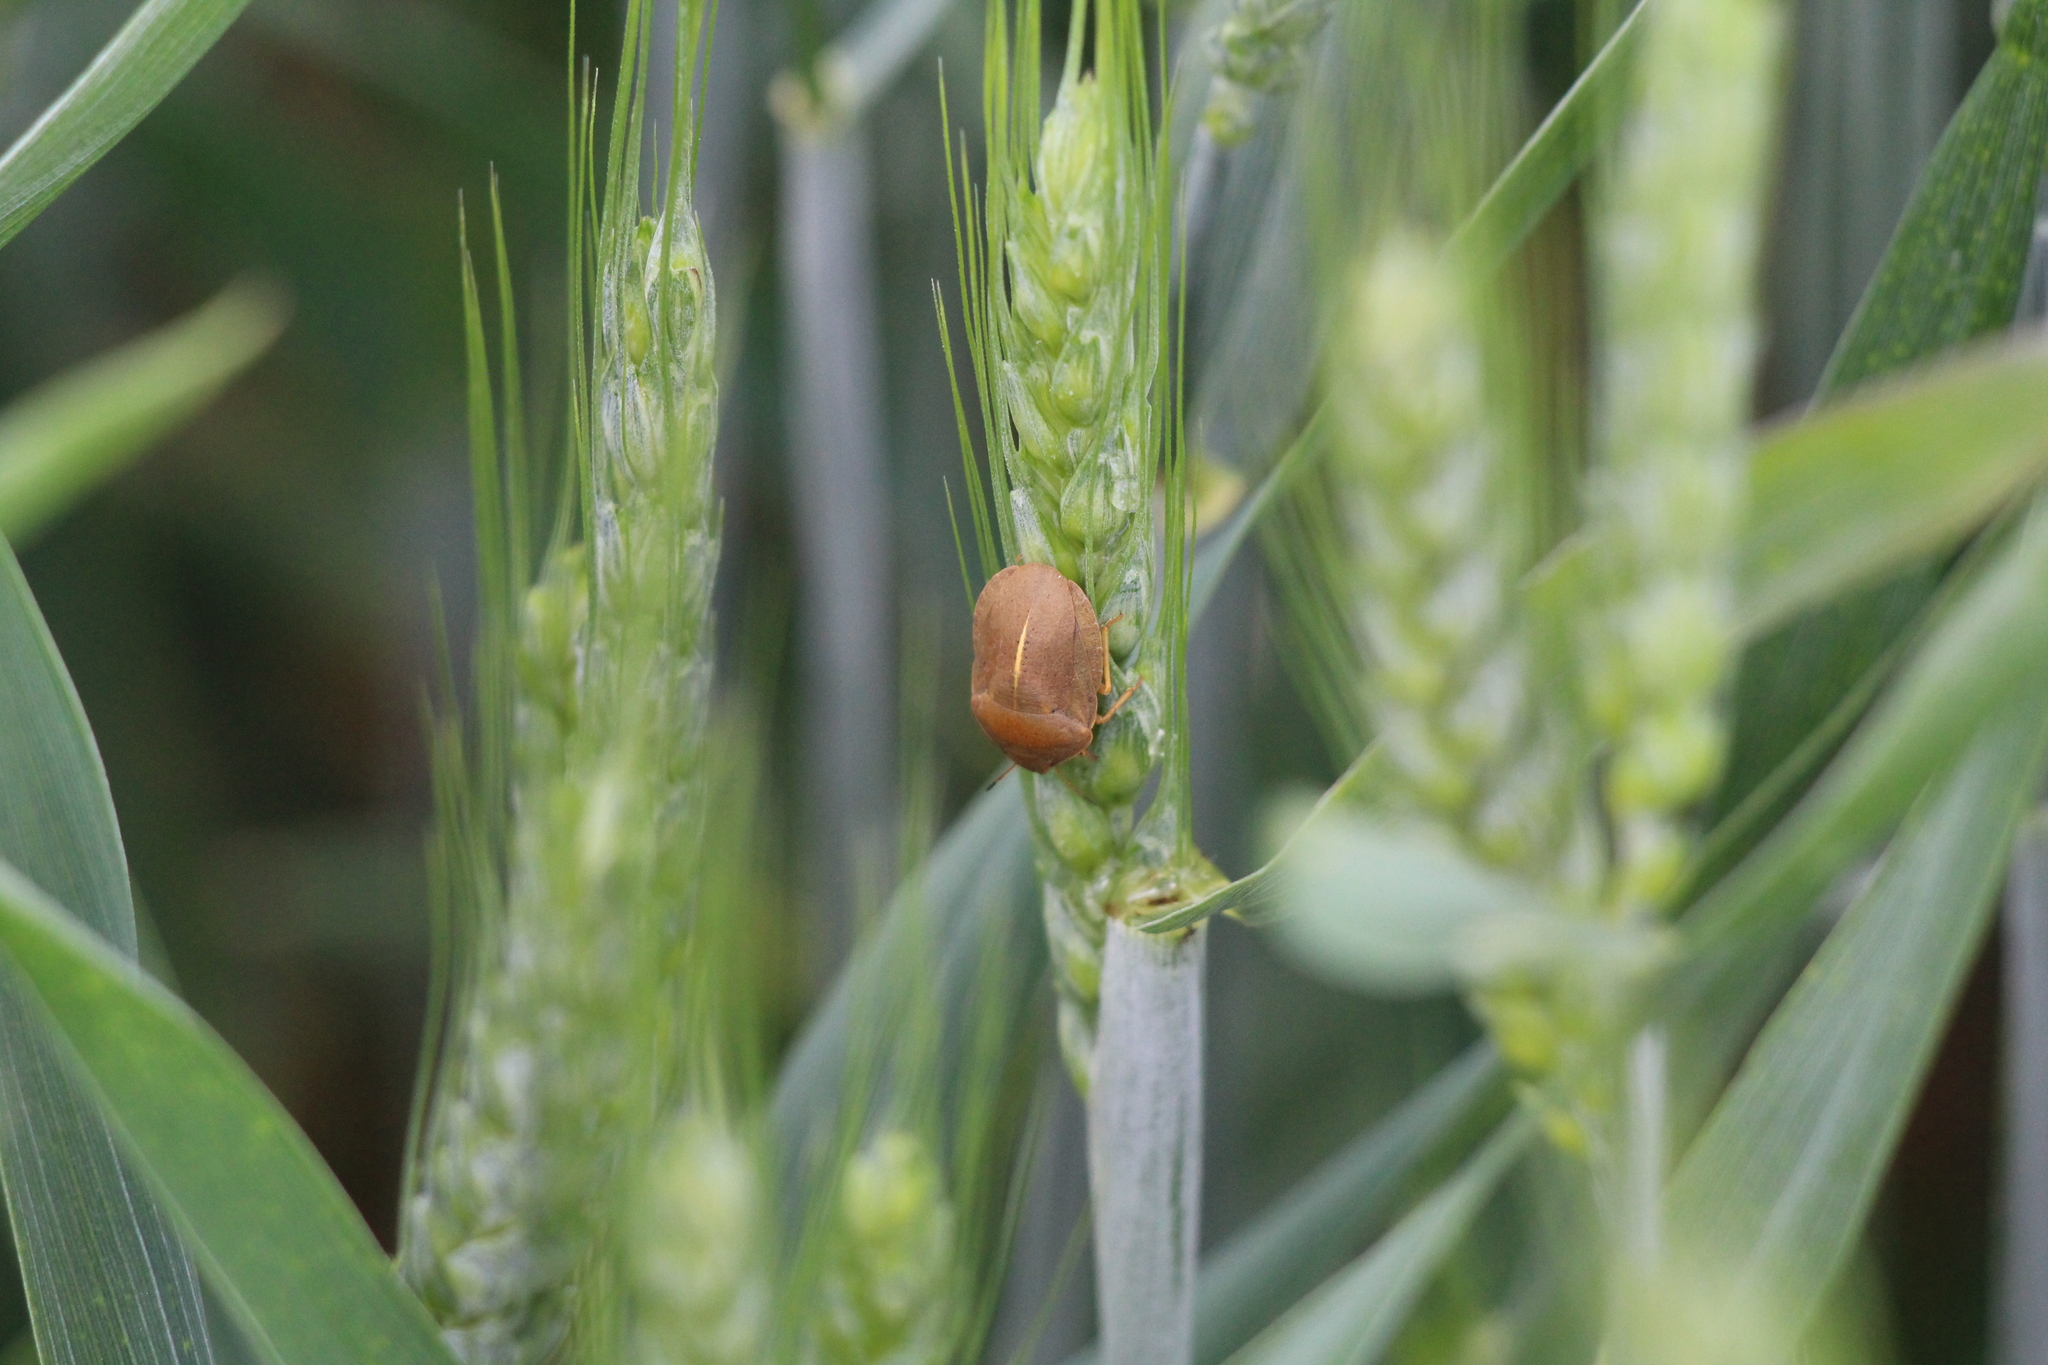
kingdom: Animalia
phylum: Arthropoda
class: Insecta
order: Hemiptera
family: Scutelleridae
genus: Eurygaster
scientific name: Eurygaster austriaca
